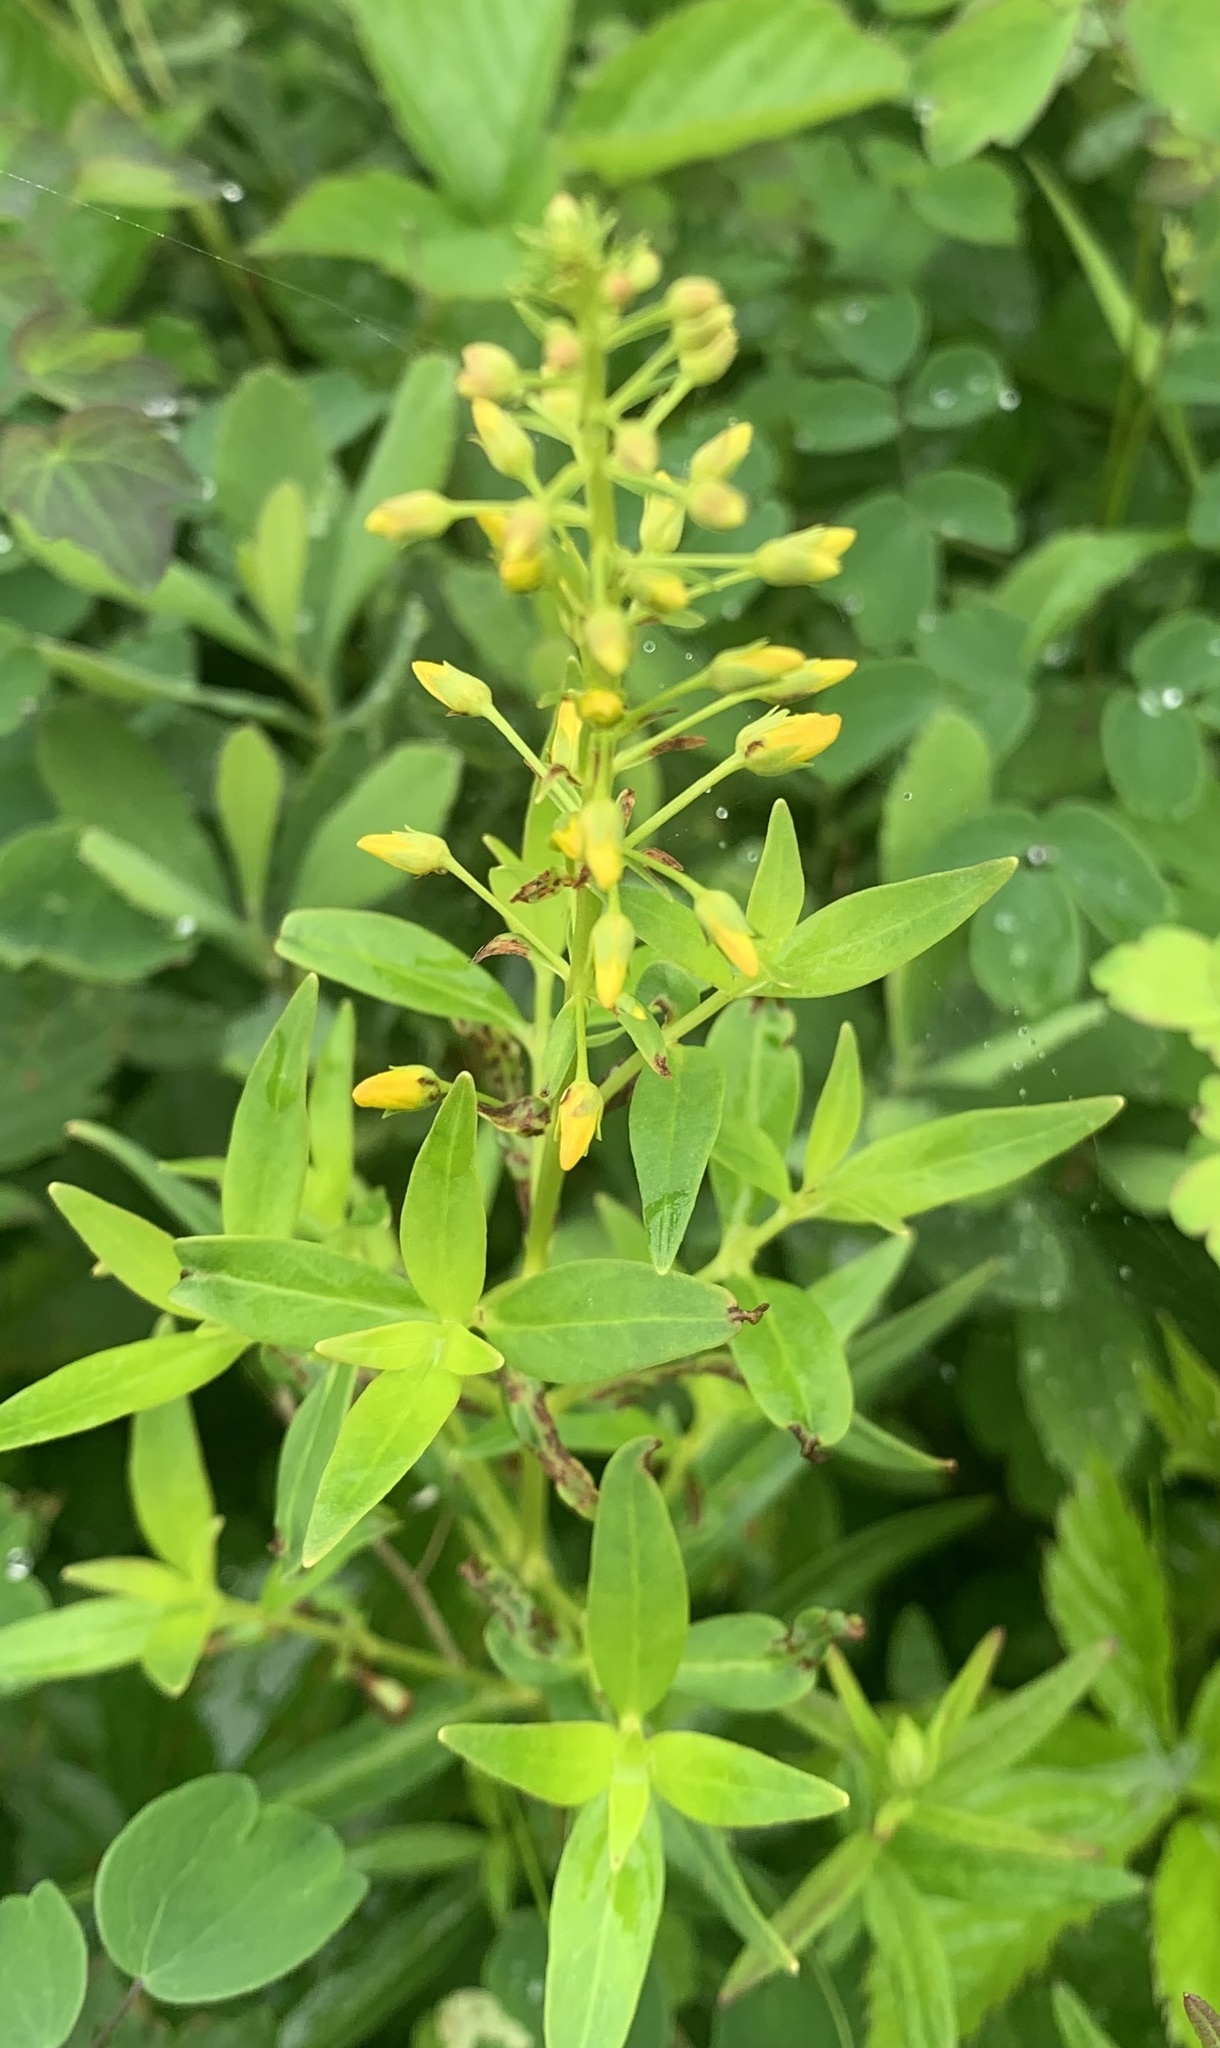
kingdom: Plantae
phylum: Tracheophyta
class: Magnoliopsida
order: Ericales
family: Primulaceae
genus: Lysimachia
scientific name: Lysimachia terrestris
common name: Lake loosestrife
